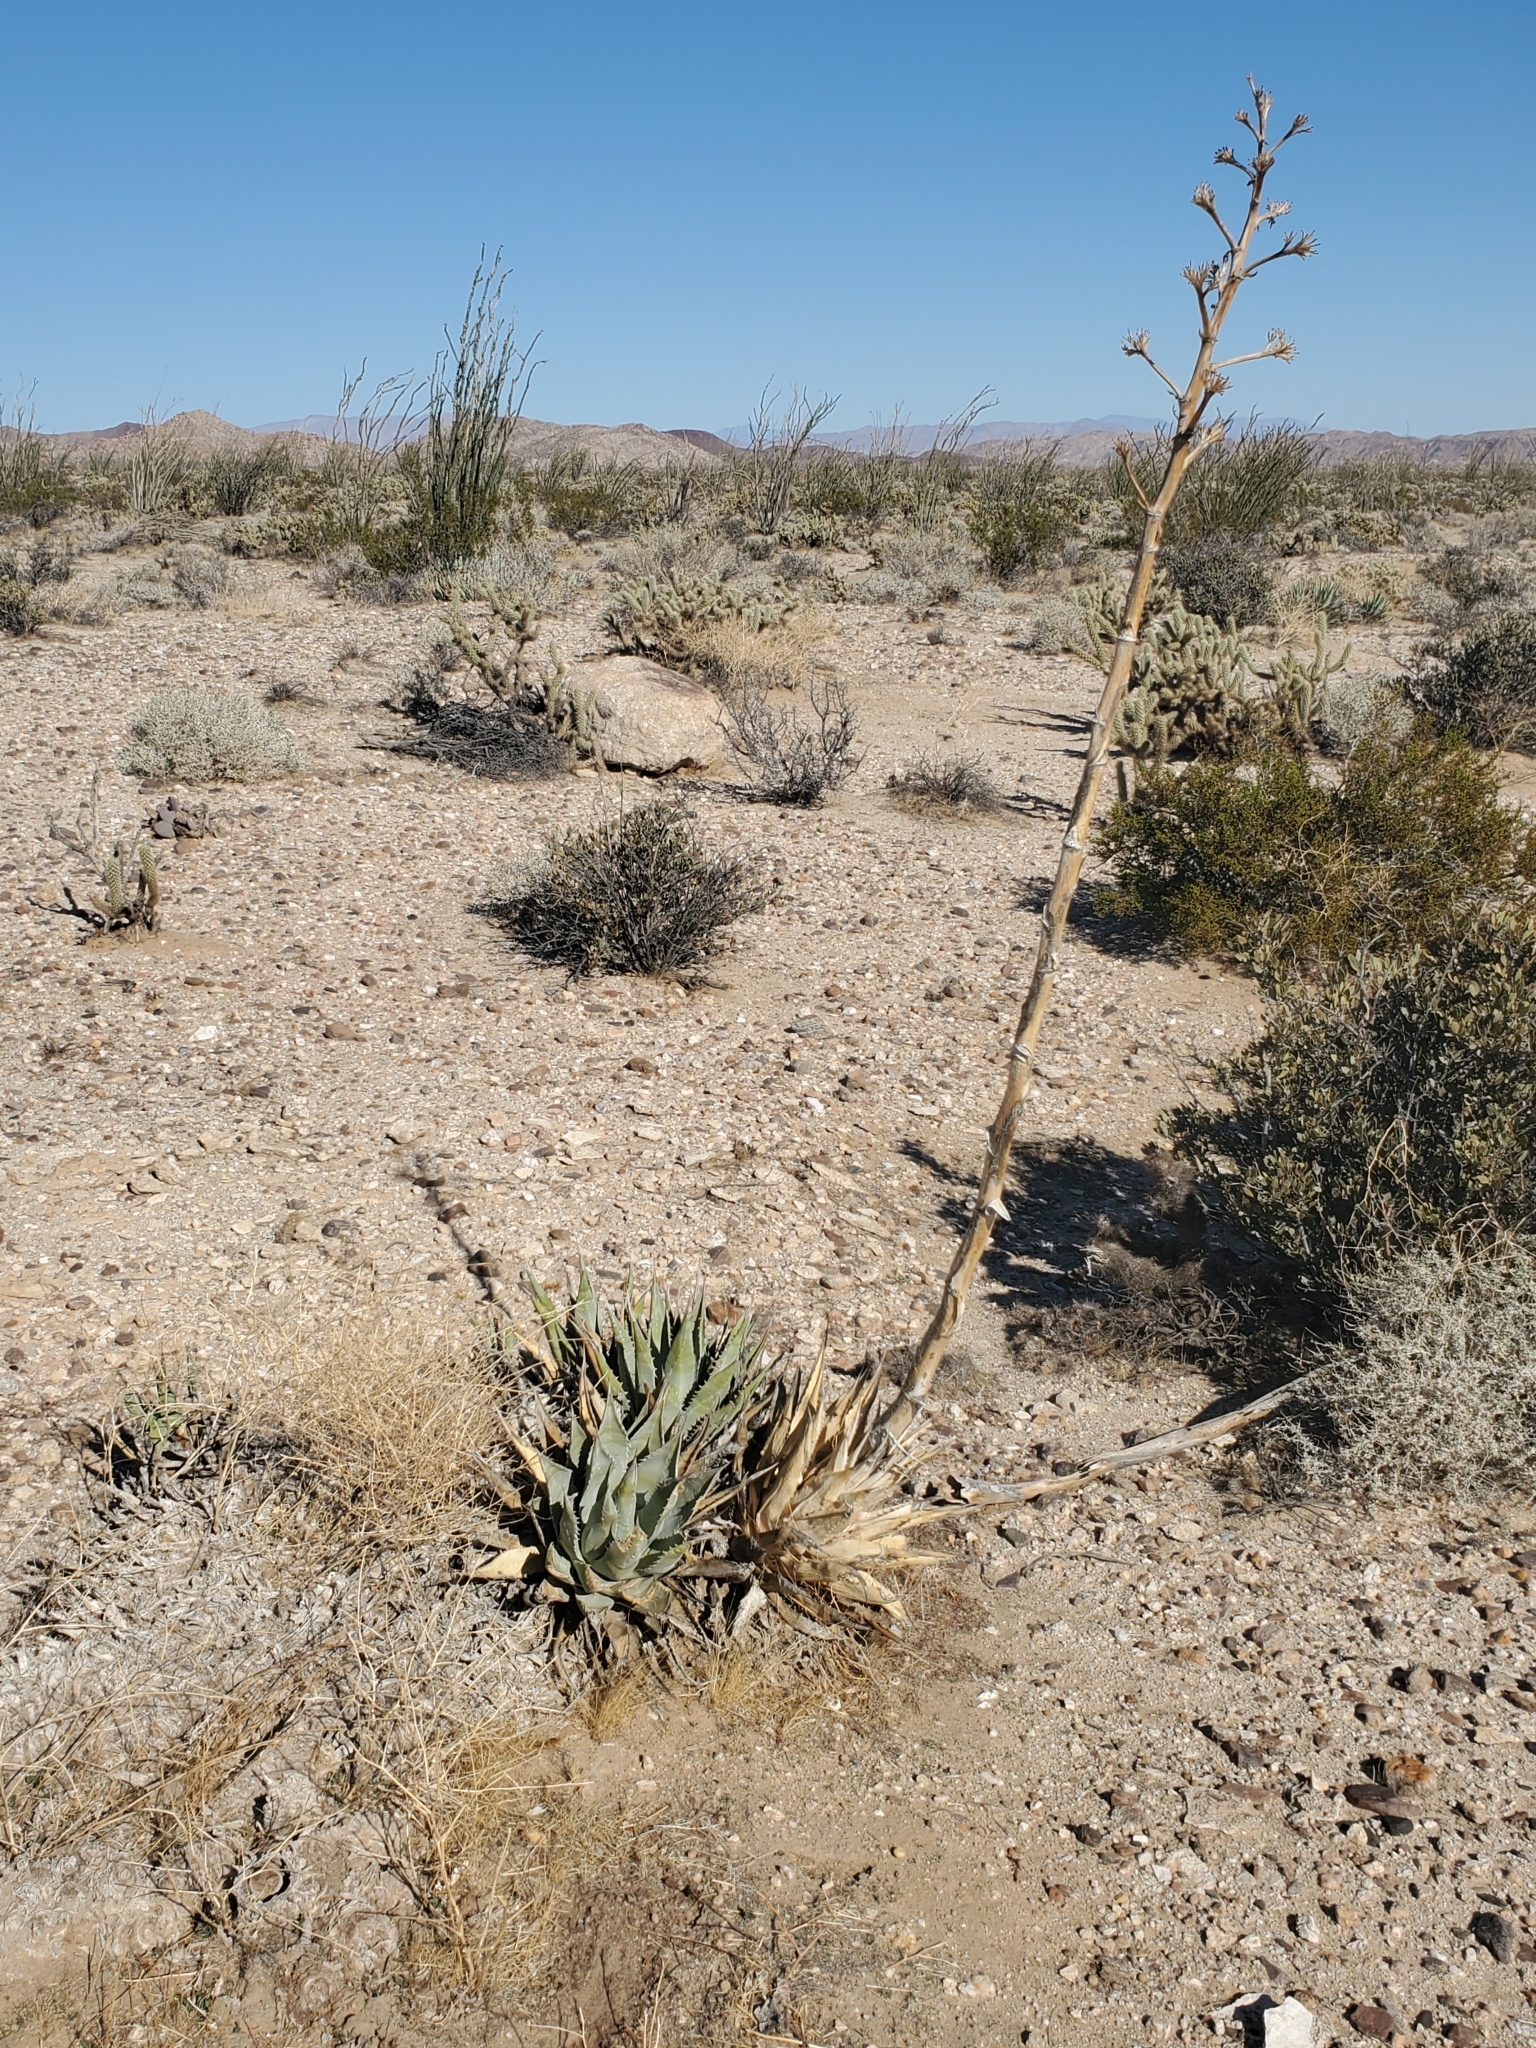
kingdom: Plantae
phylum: Tracheophyta
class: Liliopsida
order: Asparagales
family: Asparagaceae
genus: Agave
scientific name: Agave deserti
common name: Desert agave
